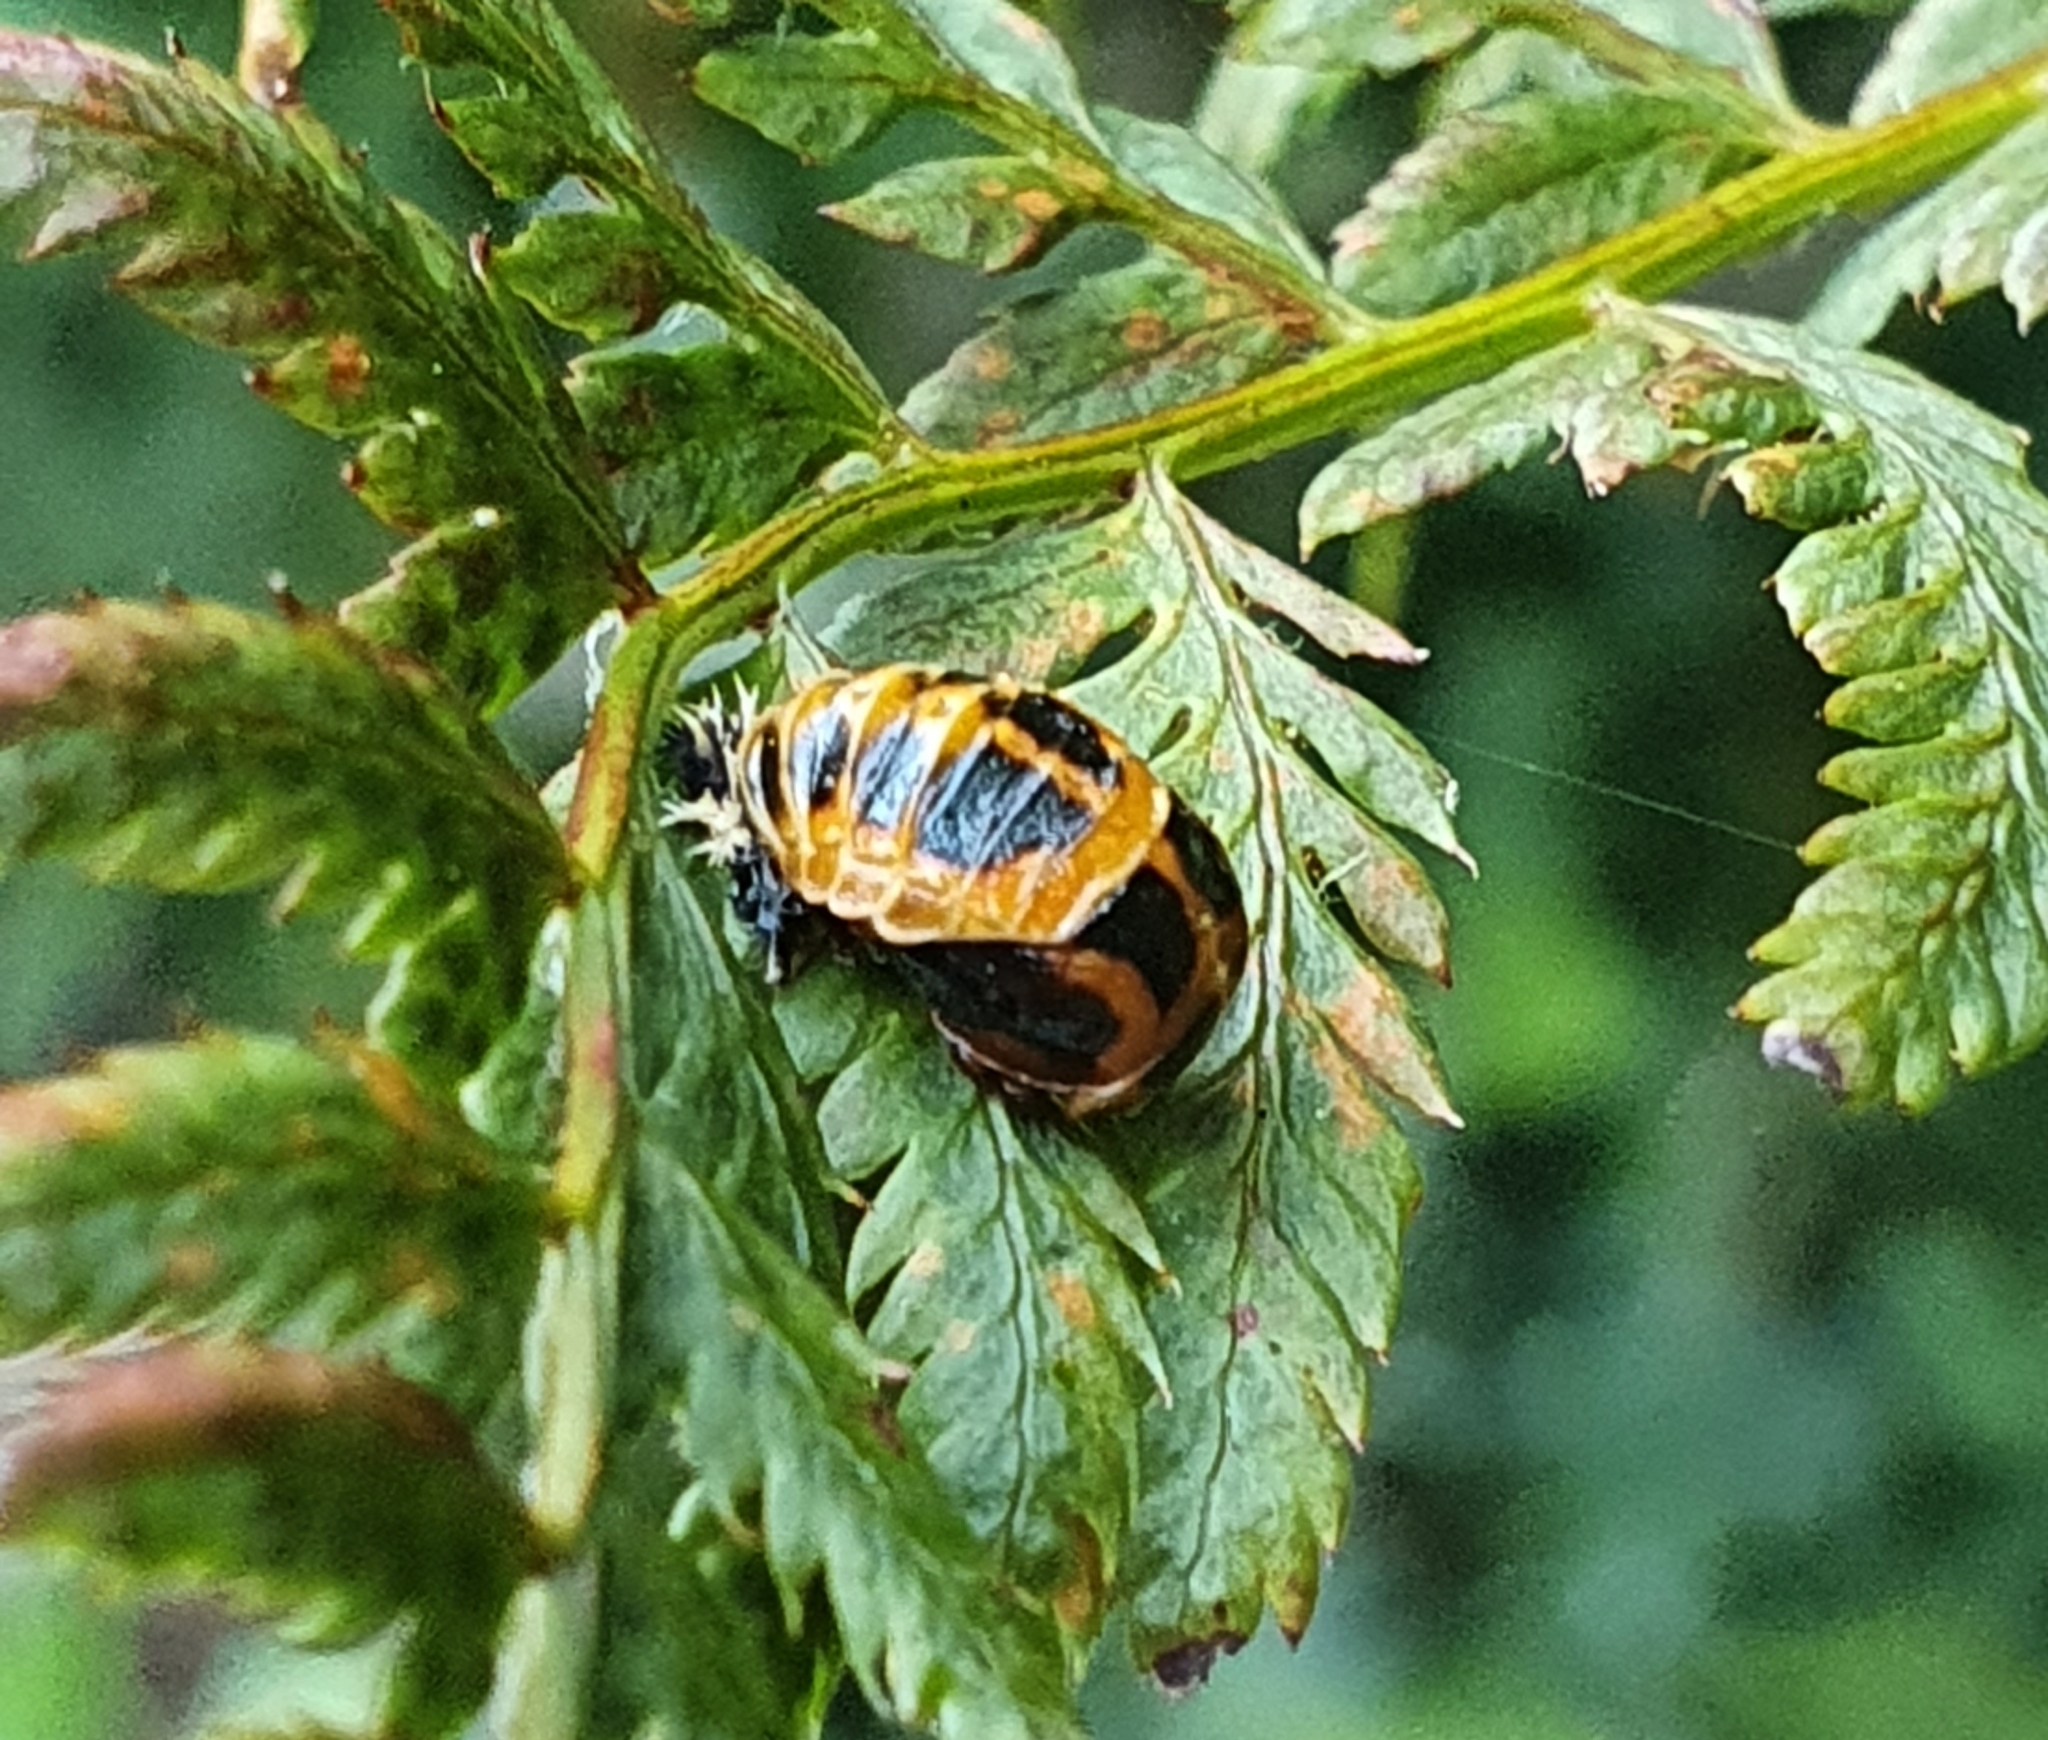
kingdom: Animalia
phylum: Arthropoda
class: Insecta
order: Coleoptera
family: Coccinellidae
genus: Harmonia
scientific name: Harmonia axyridis
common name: Harlequin ladybird
